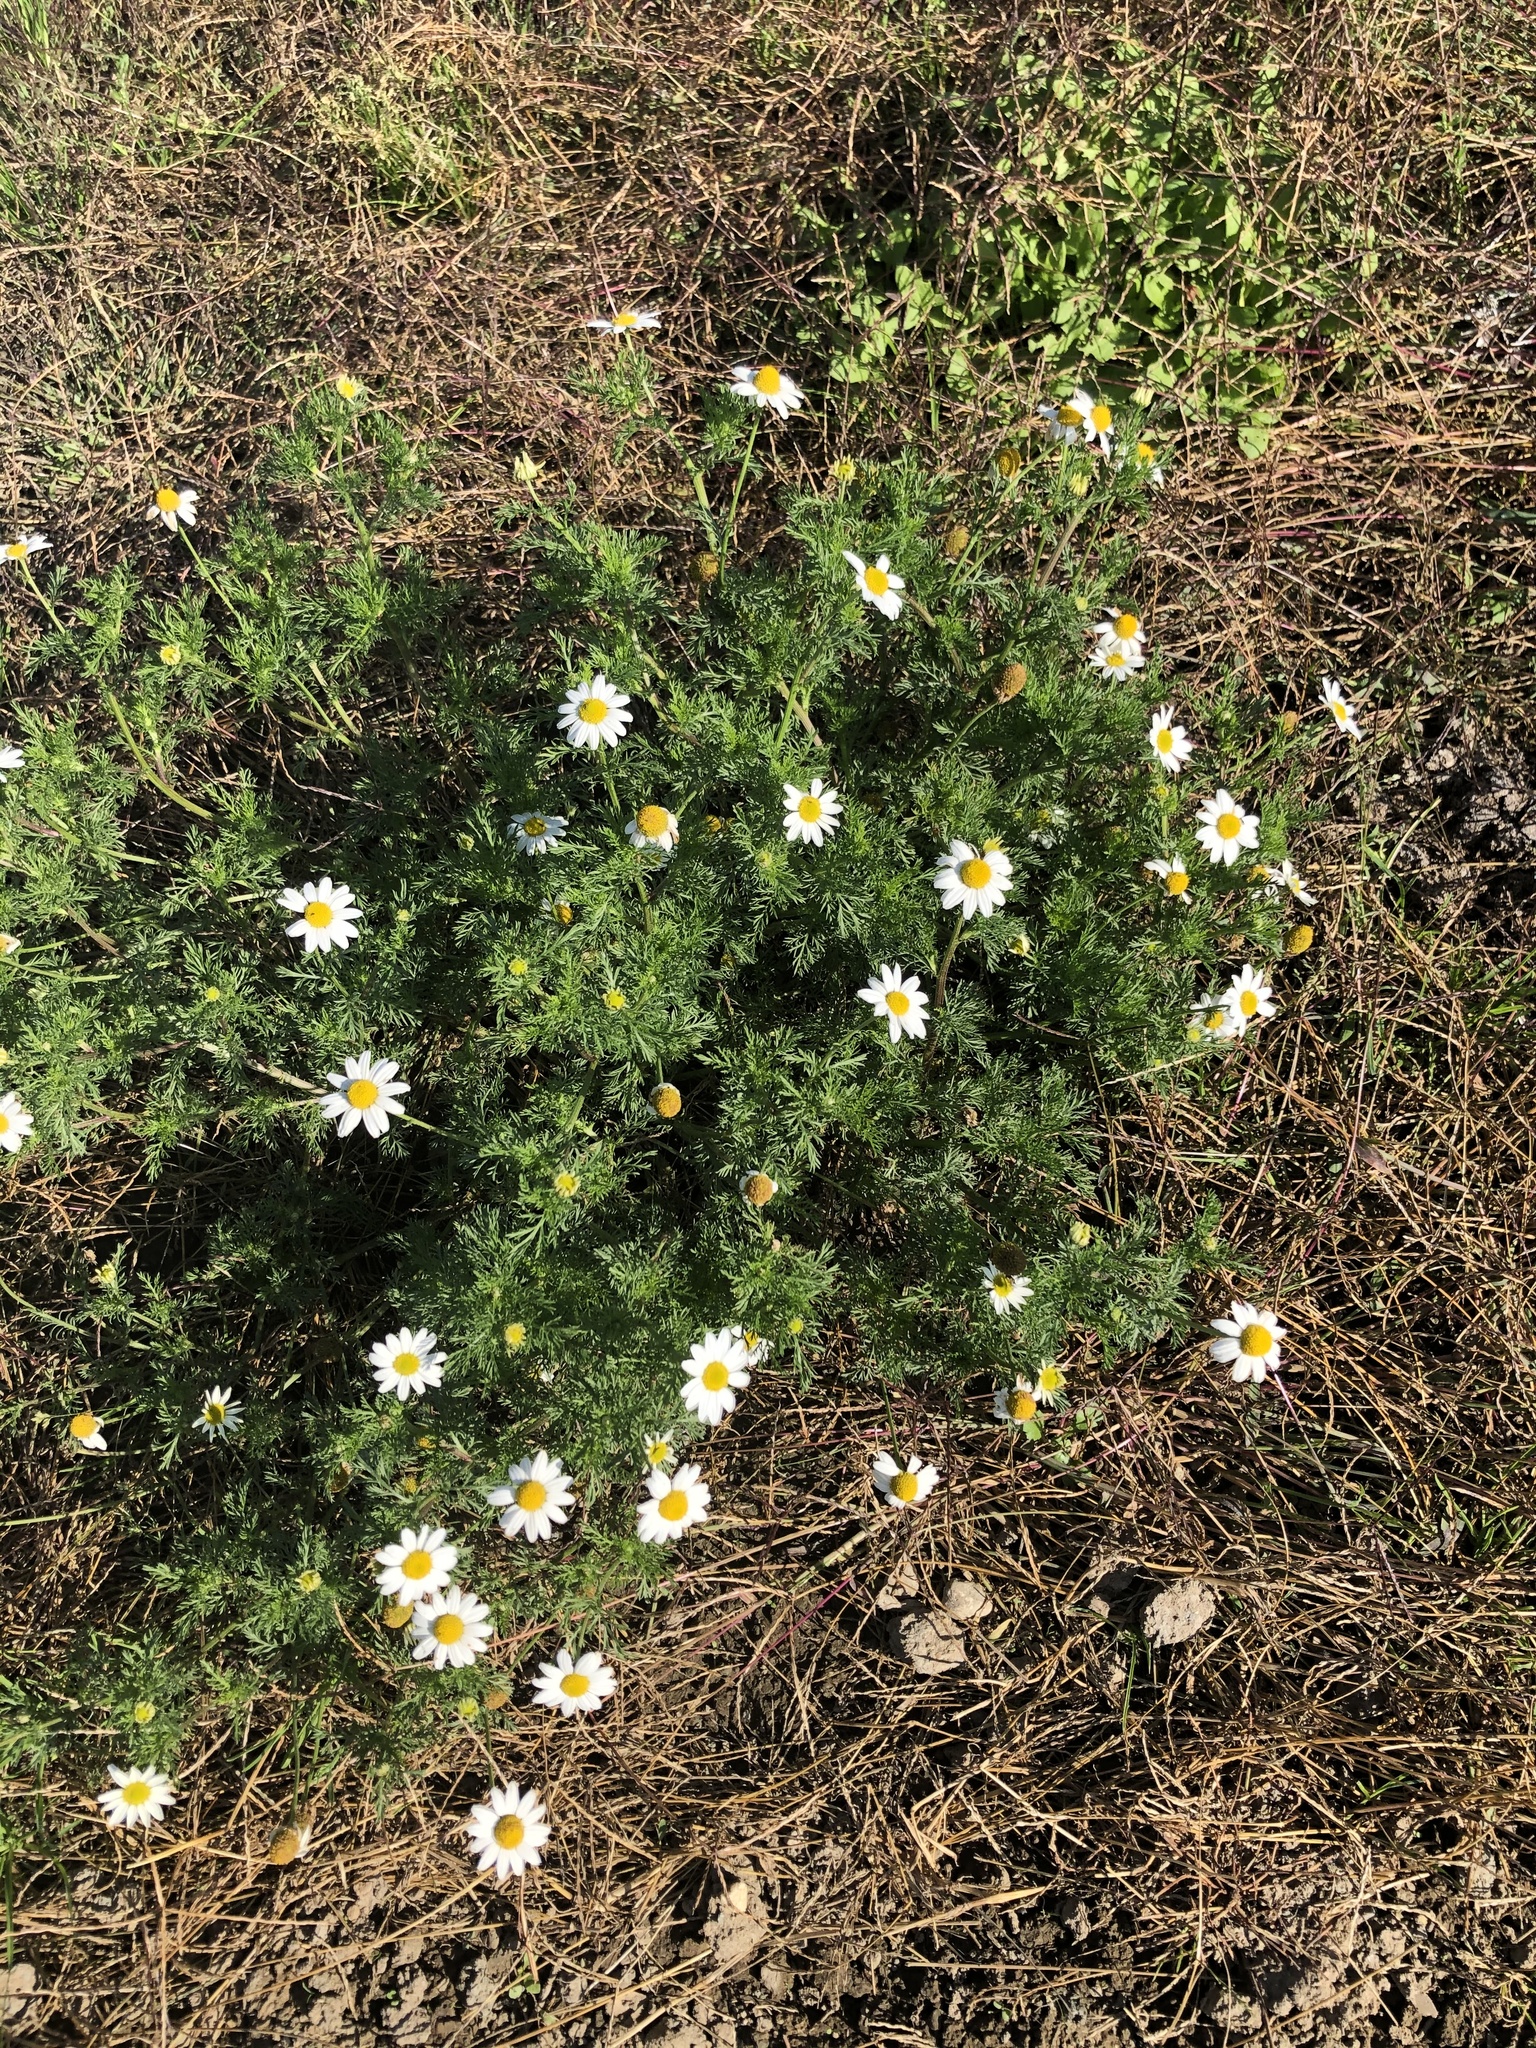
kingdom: Plantae
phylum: Tracheophyta
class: Magnoliopsida
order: Asterales
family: Asteraceae
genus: Anthemis
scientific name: Anthemis arvensis
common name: Corn chamomile
